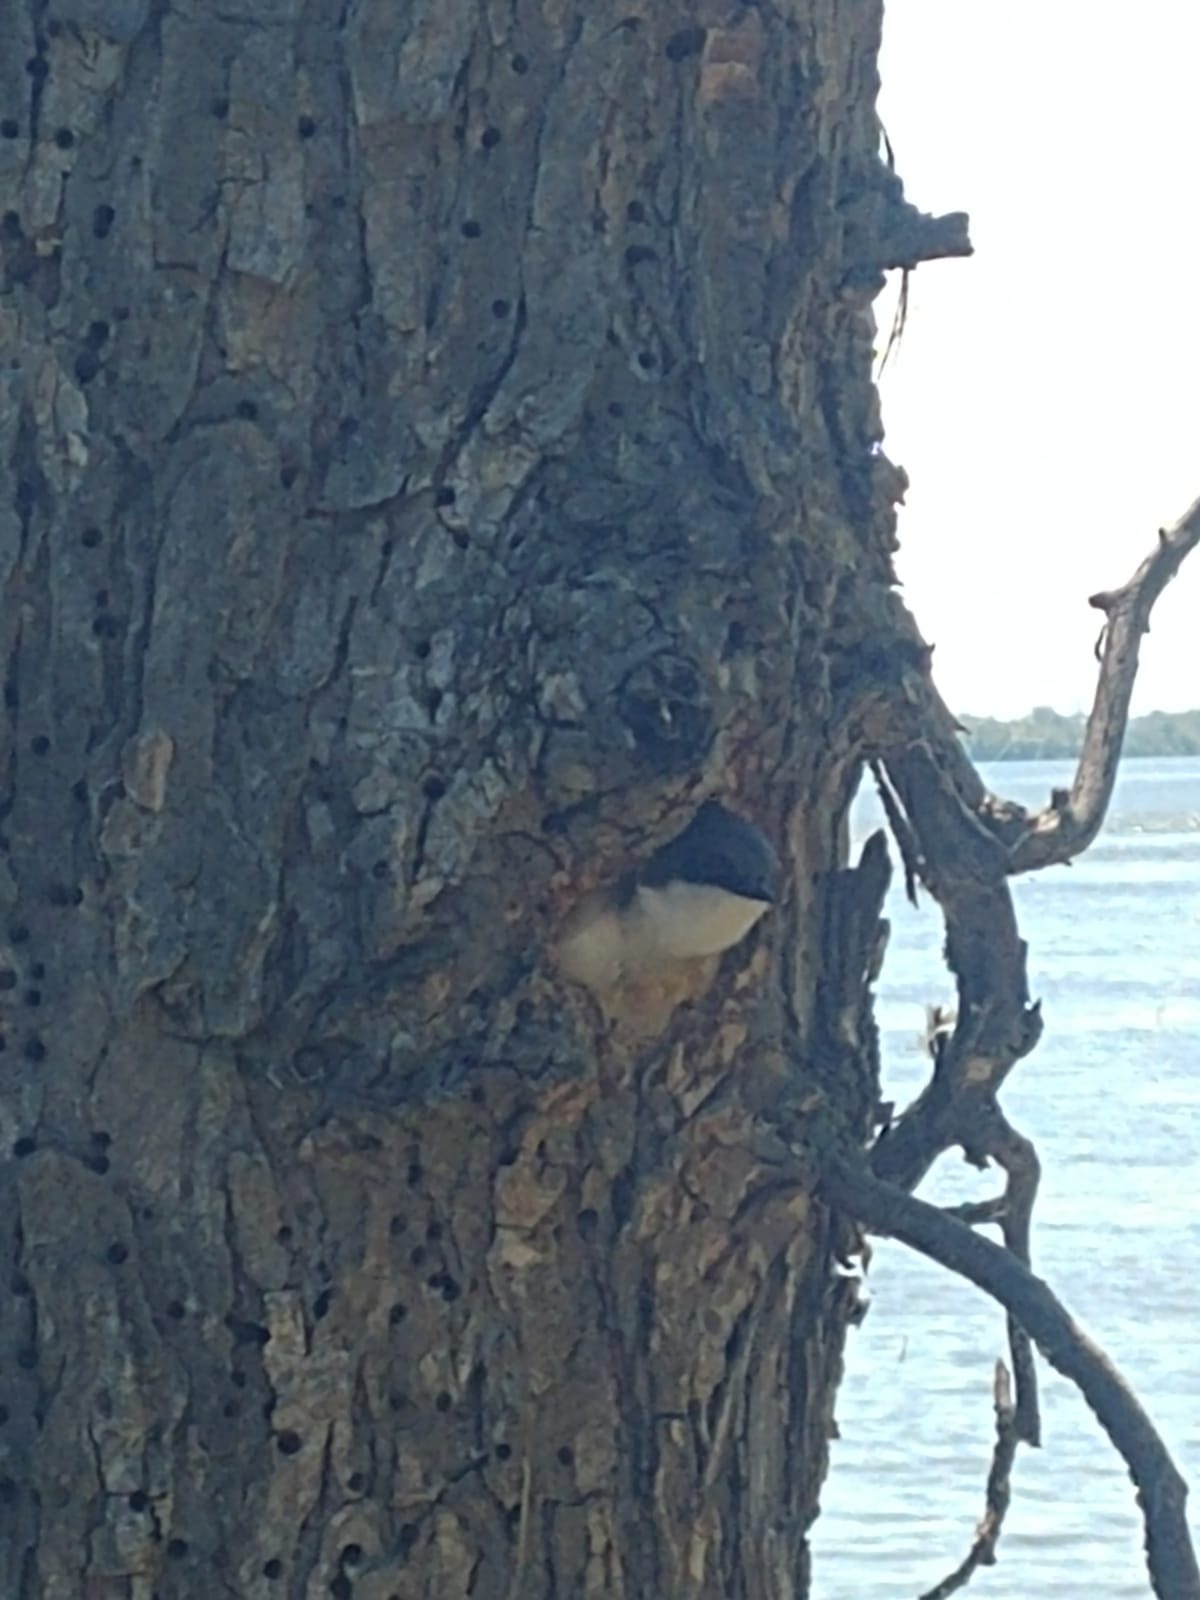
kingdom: Animalia
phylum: Chordata
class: Aves
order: Passeriformes
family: Hirundinidae
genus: Tachycineta
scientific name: Tachycineta bicolor
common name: Tree swallow
